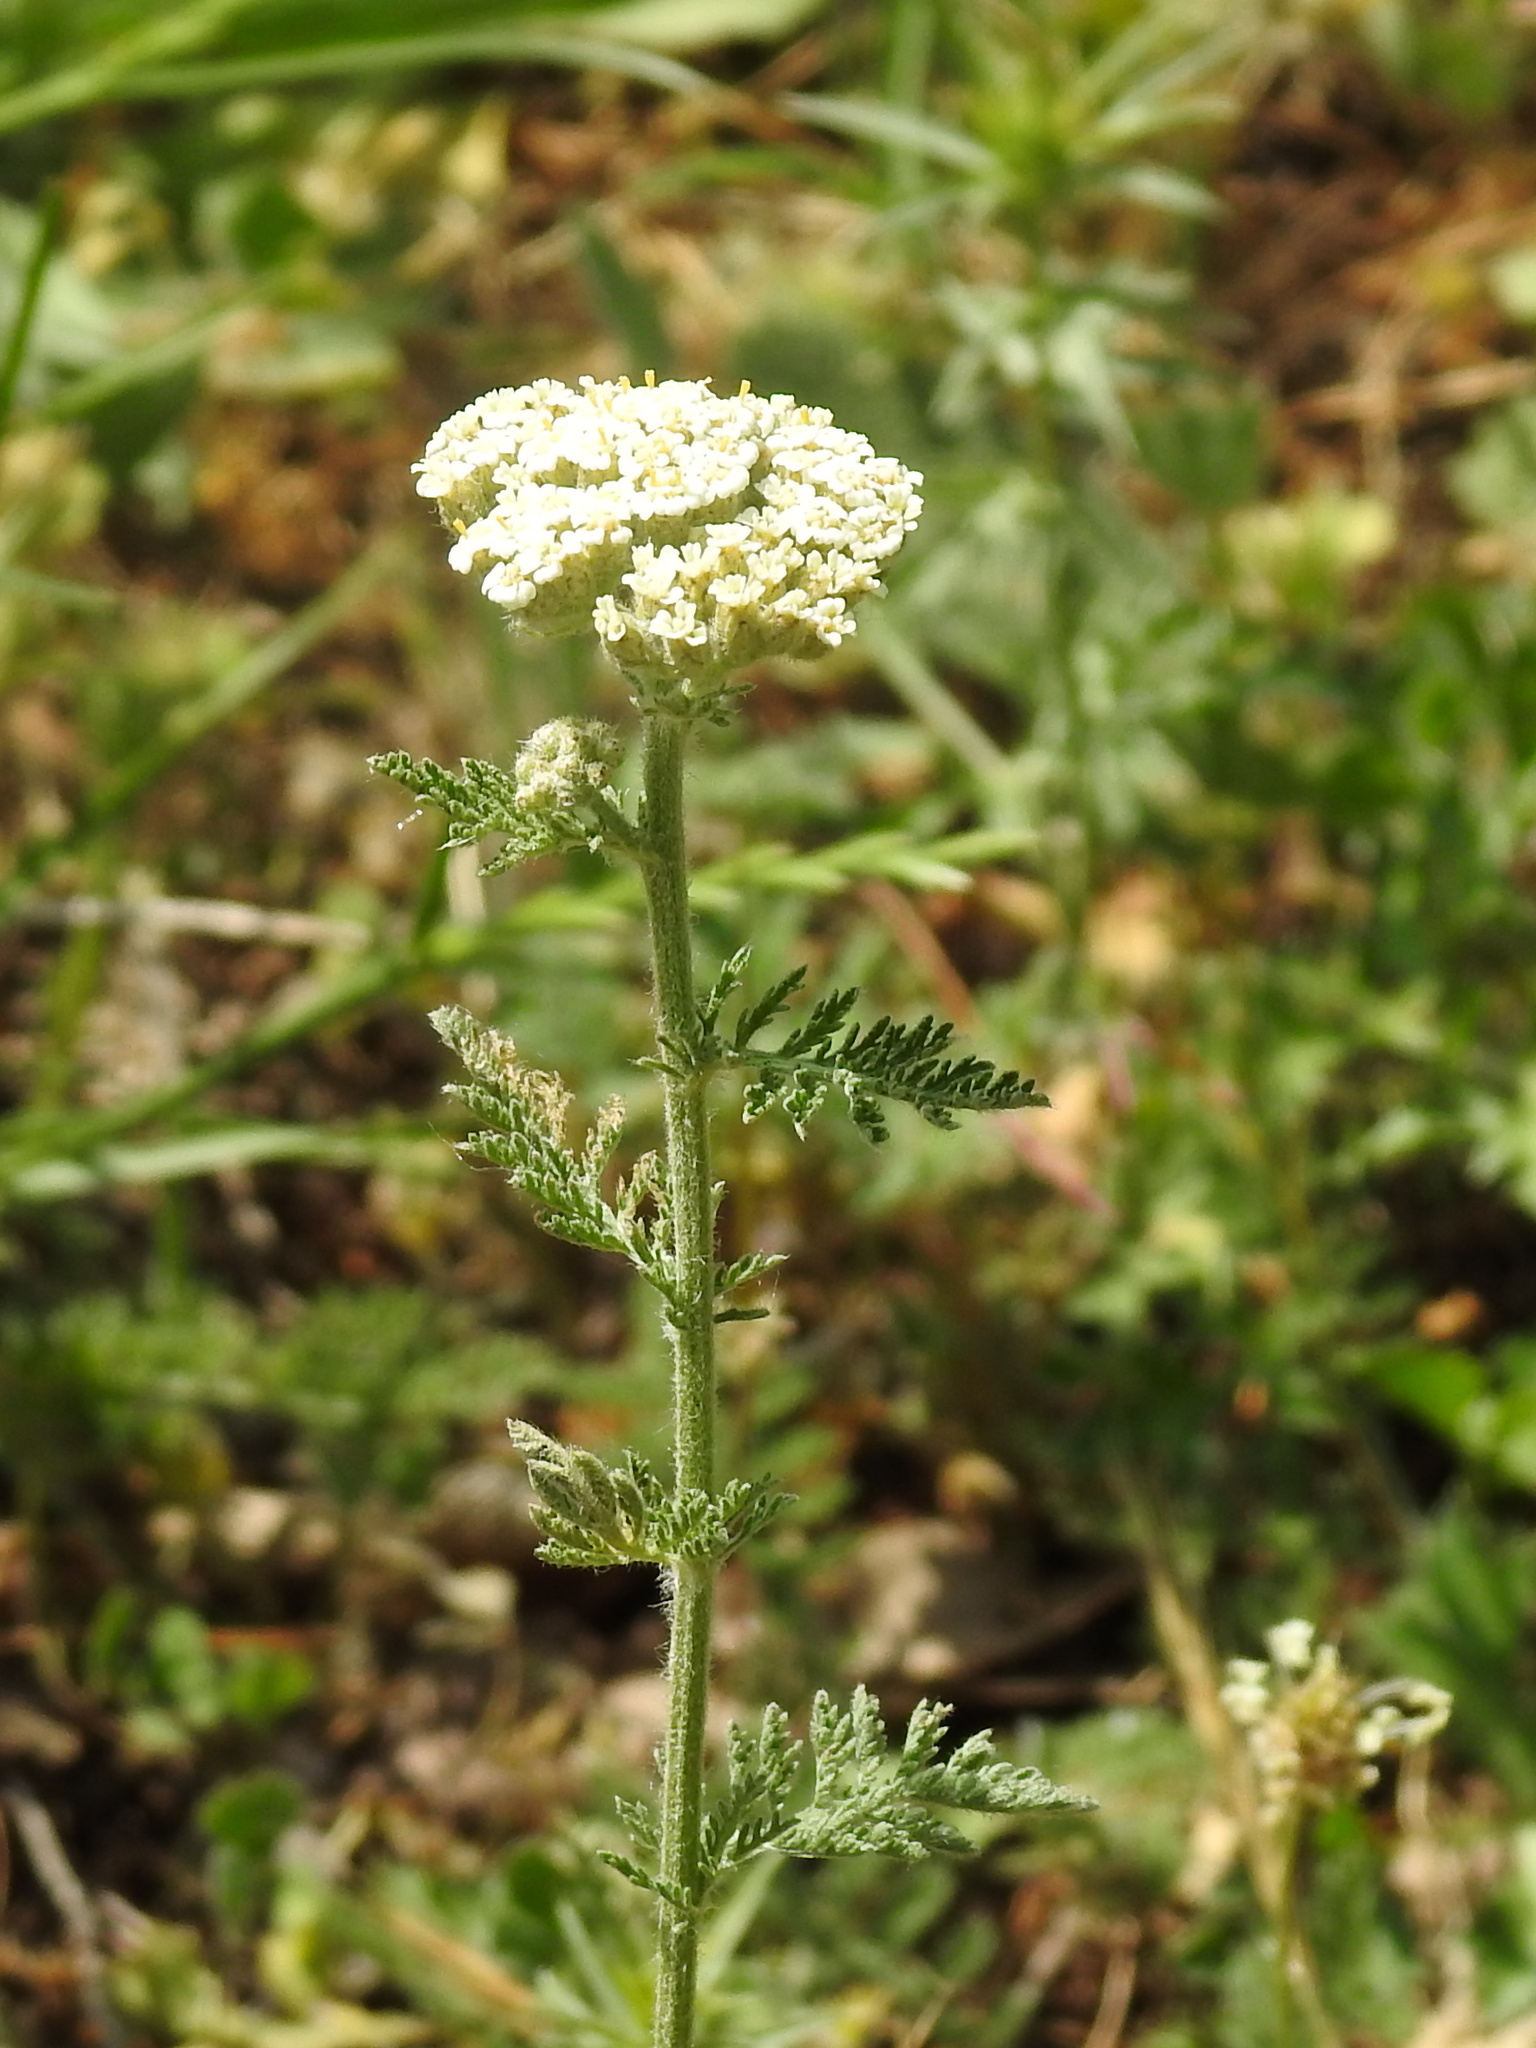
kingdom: Plantae
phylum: Tracheophyta
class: Magnoliopsida
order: Asterales
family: Asteraceae
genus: Achillea
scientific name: Achillea nobilis
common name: Noble yarrow
